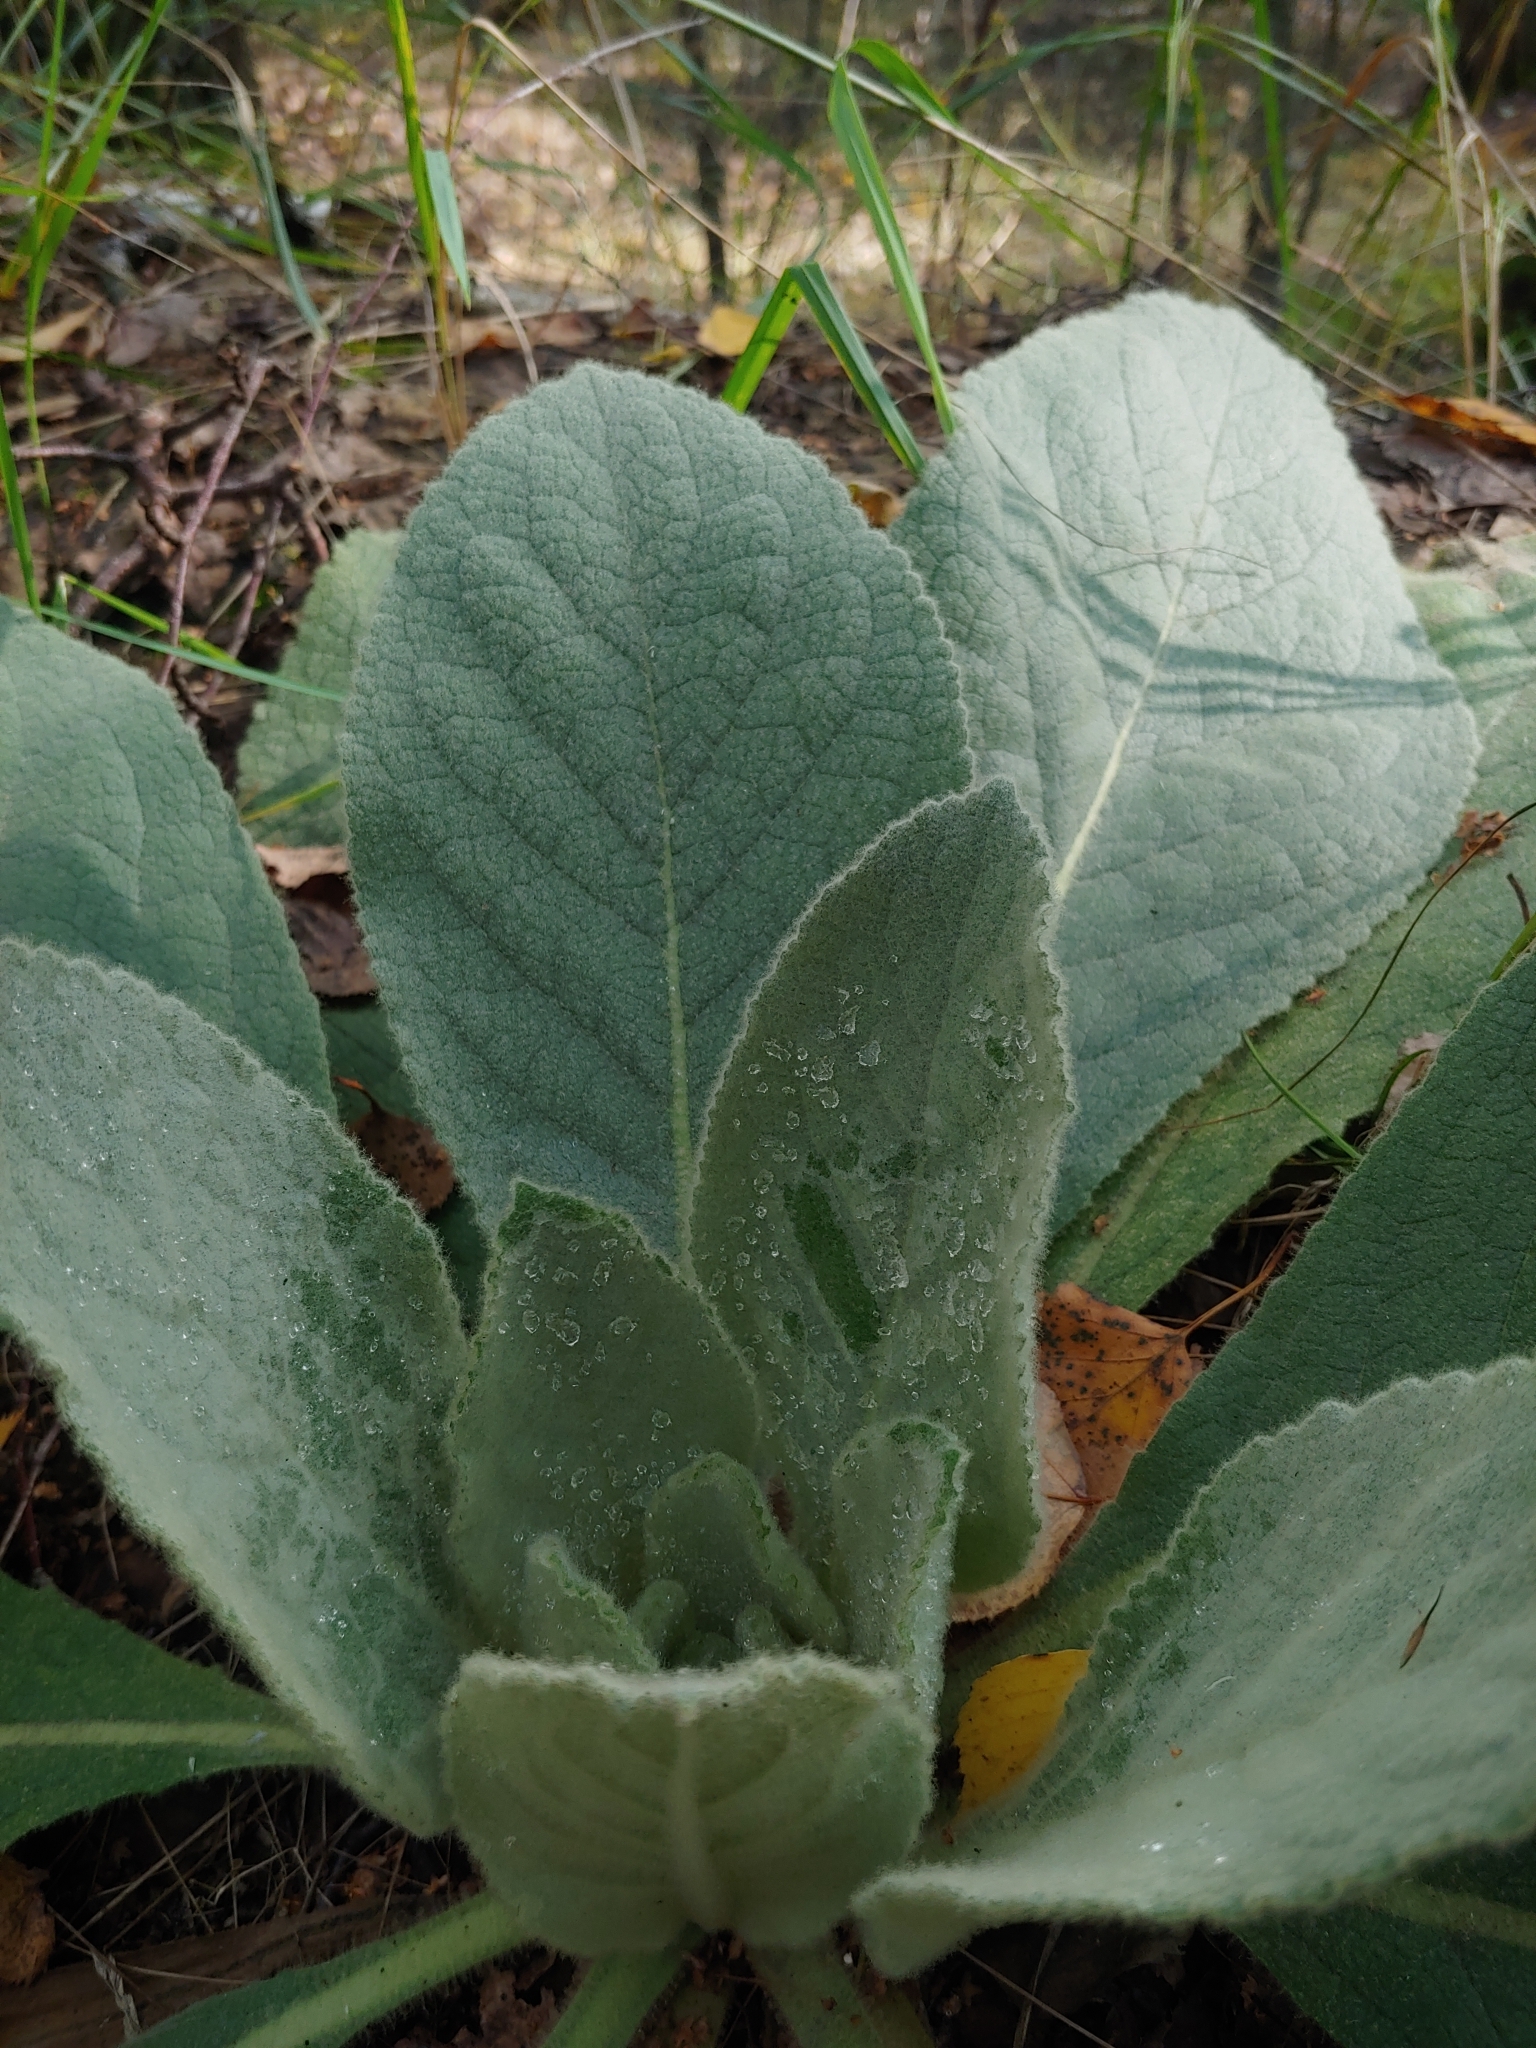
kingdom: Plantae
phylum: Tracheophyta
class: Magnoliopsida
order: Lamiales
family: Scrophulariaceae
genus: Verbascum
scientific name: Verbascum thapsus
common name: Common mullein
